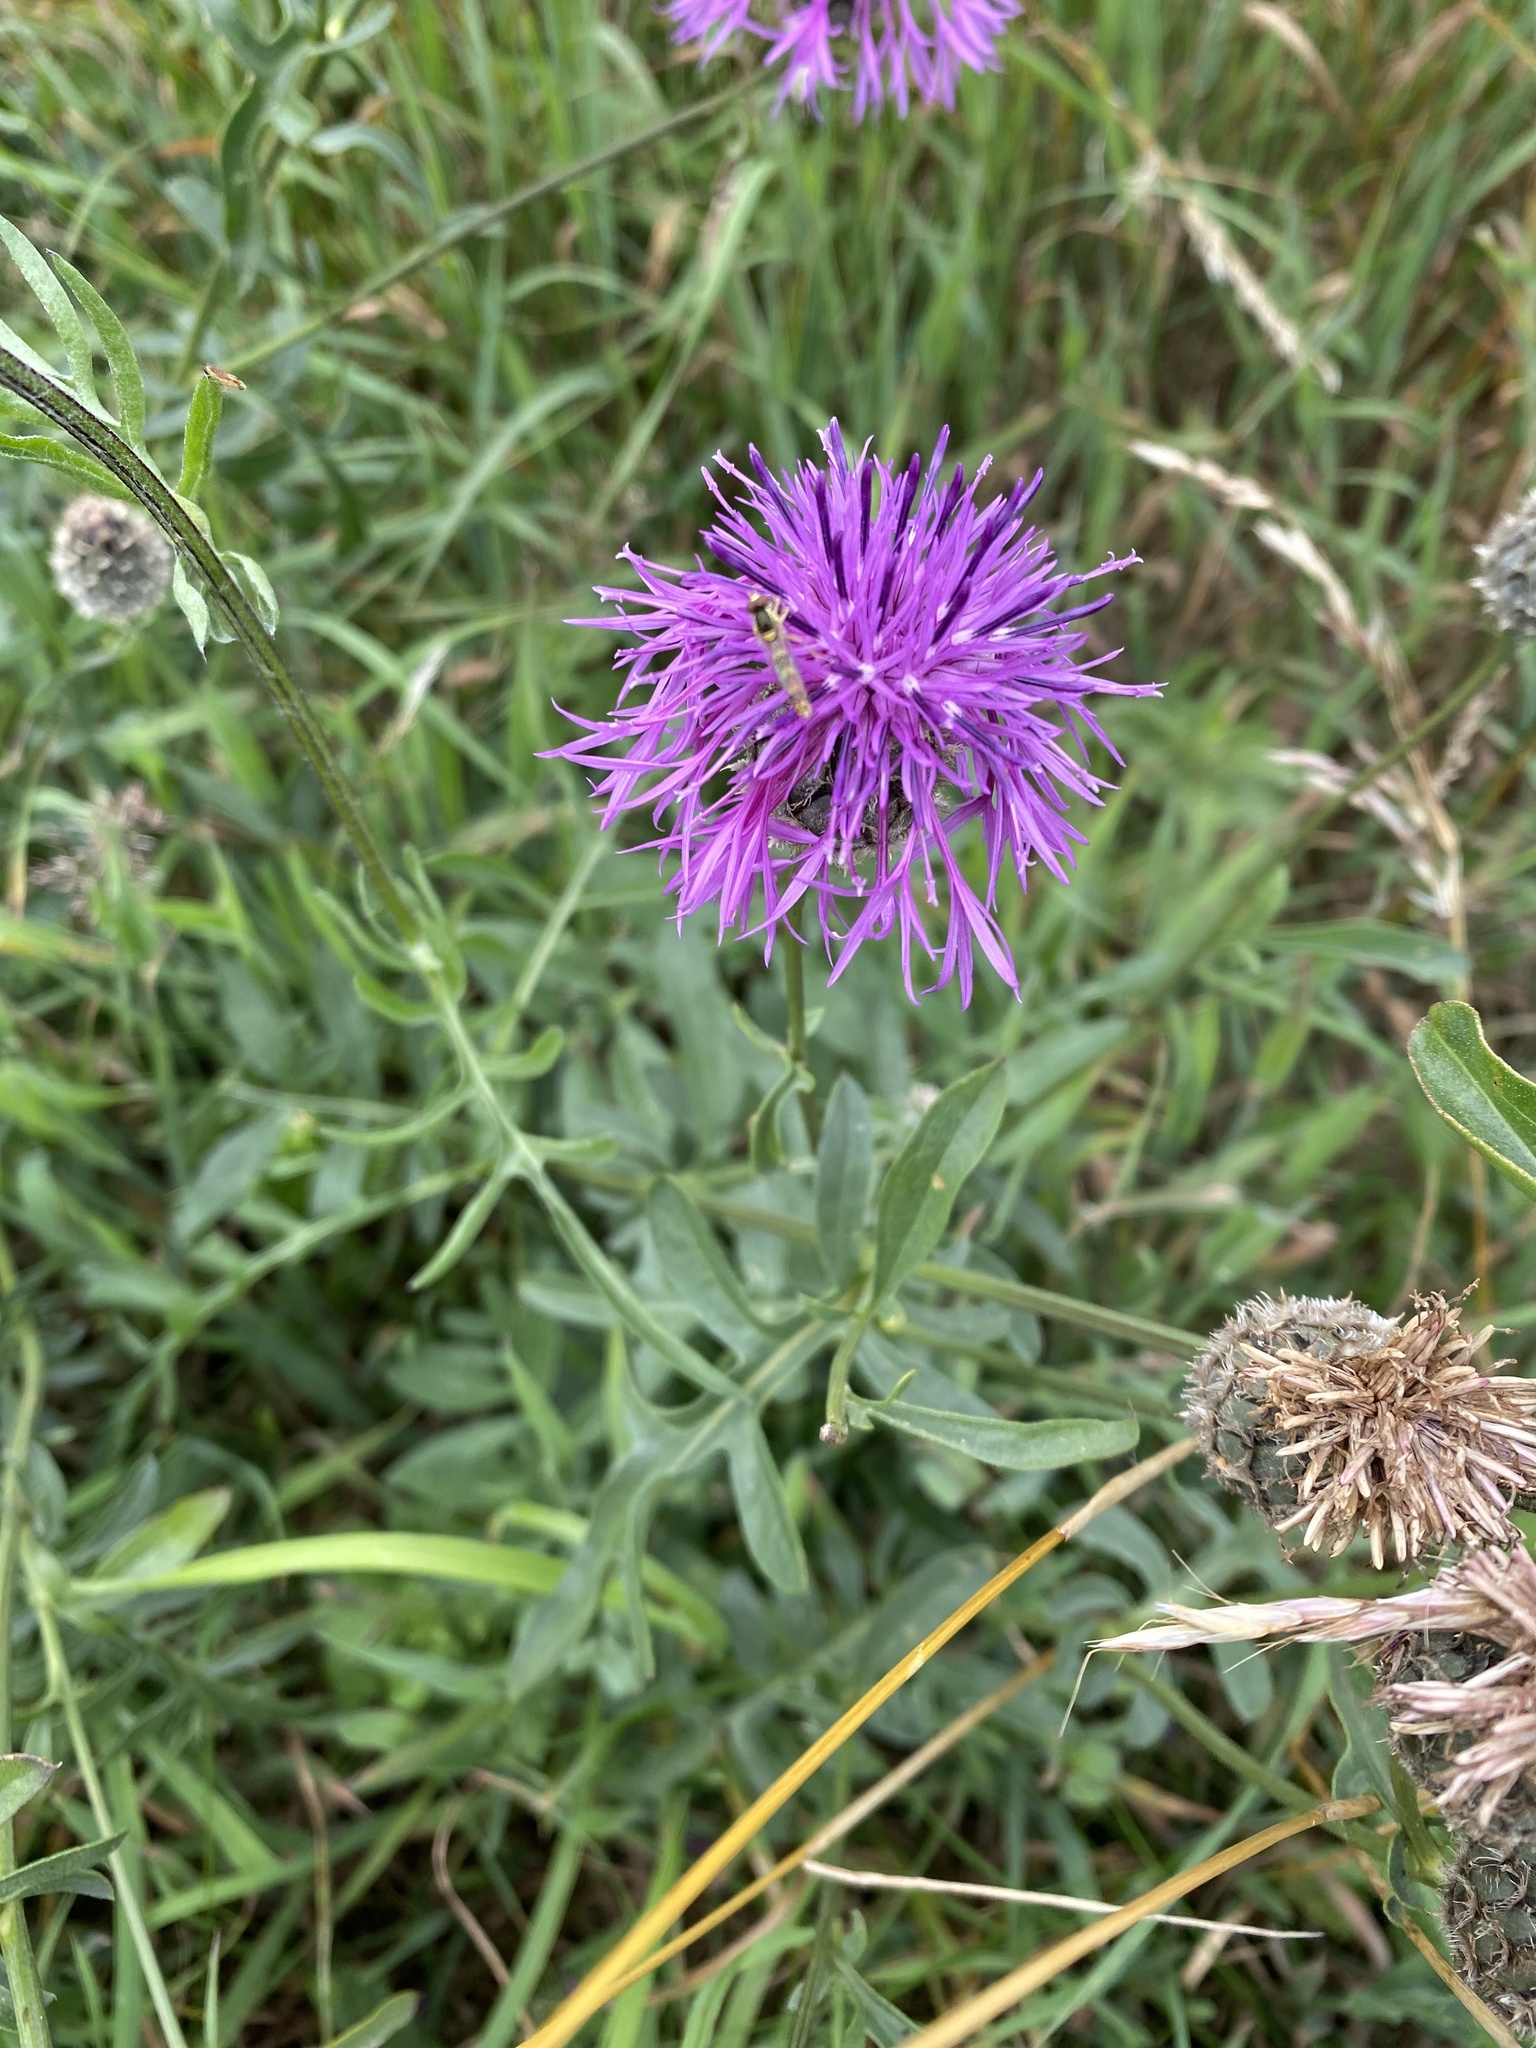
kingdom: Plantae
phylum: Tracheophyta
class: Magnoliopsida
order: Asterales
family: Asteraceae
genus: Centaurea
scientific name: Centaurea scabiosa
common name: Greater knapweed
